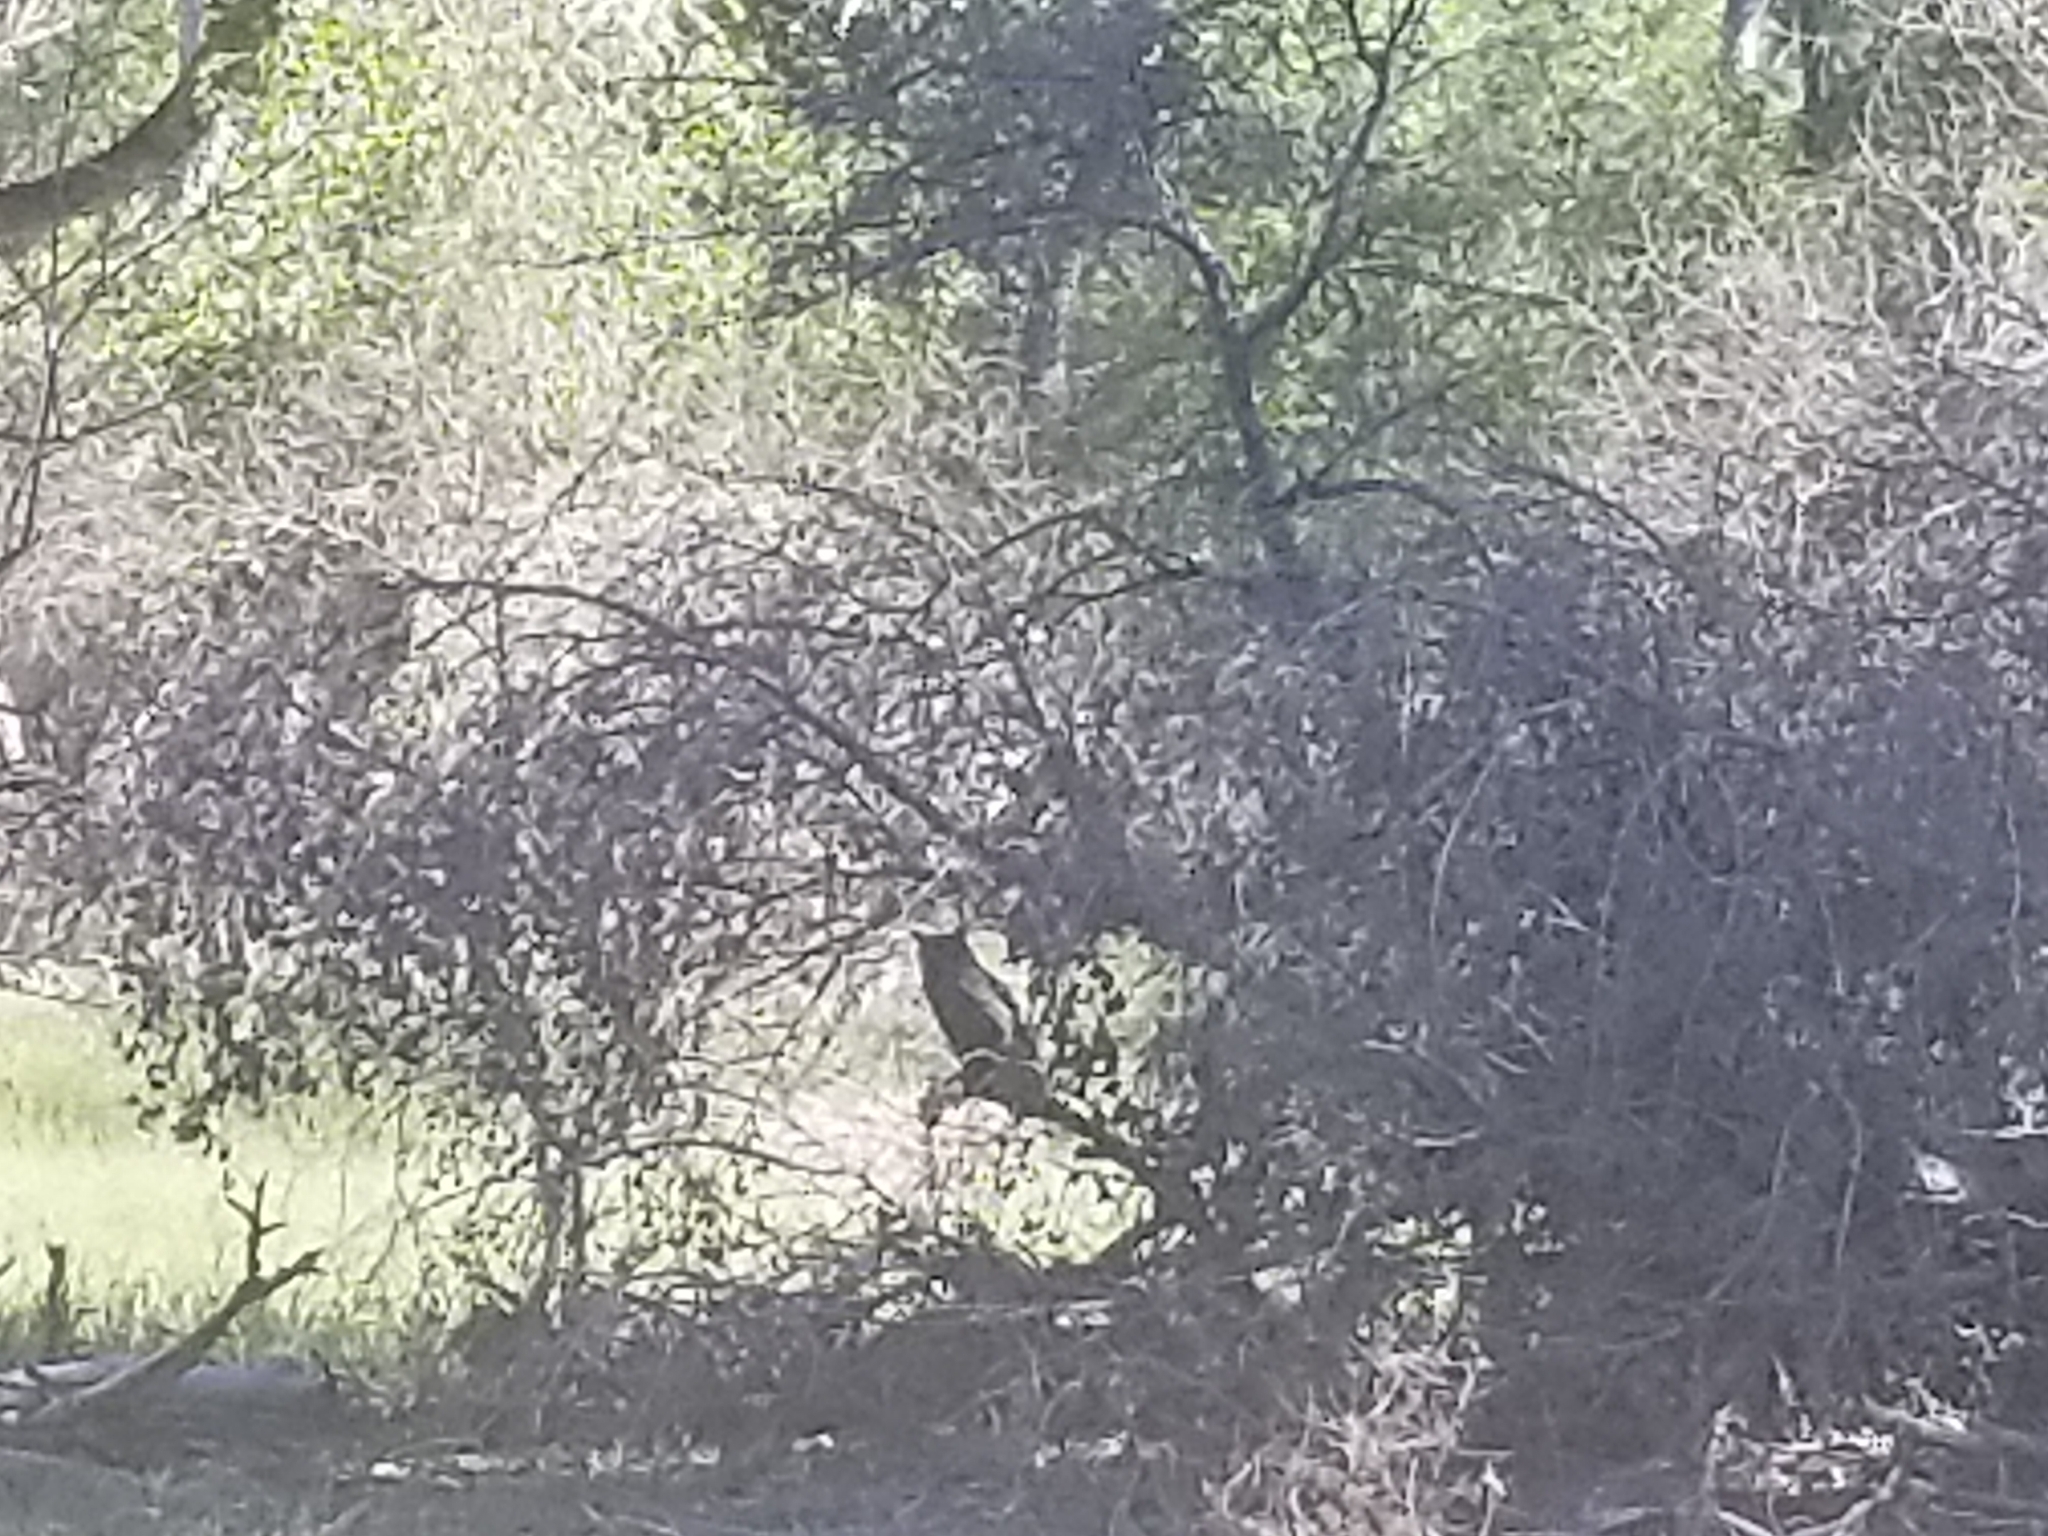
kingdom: Animalia
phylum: Chordata
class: Aves
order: Strigiformes
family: Strigidae
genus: Bubo
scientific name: Bubo virginianus
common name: Great horned owl
